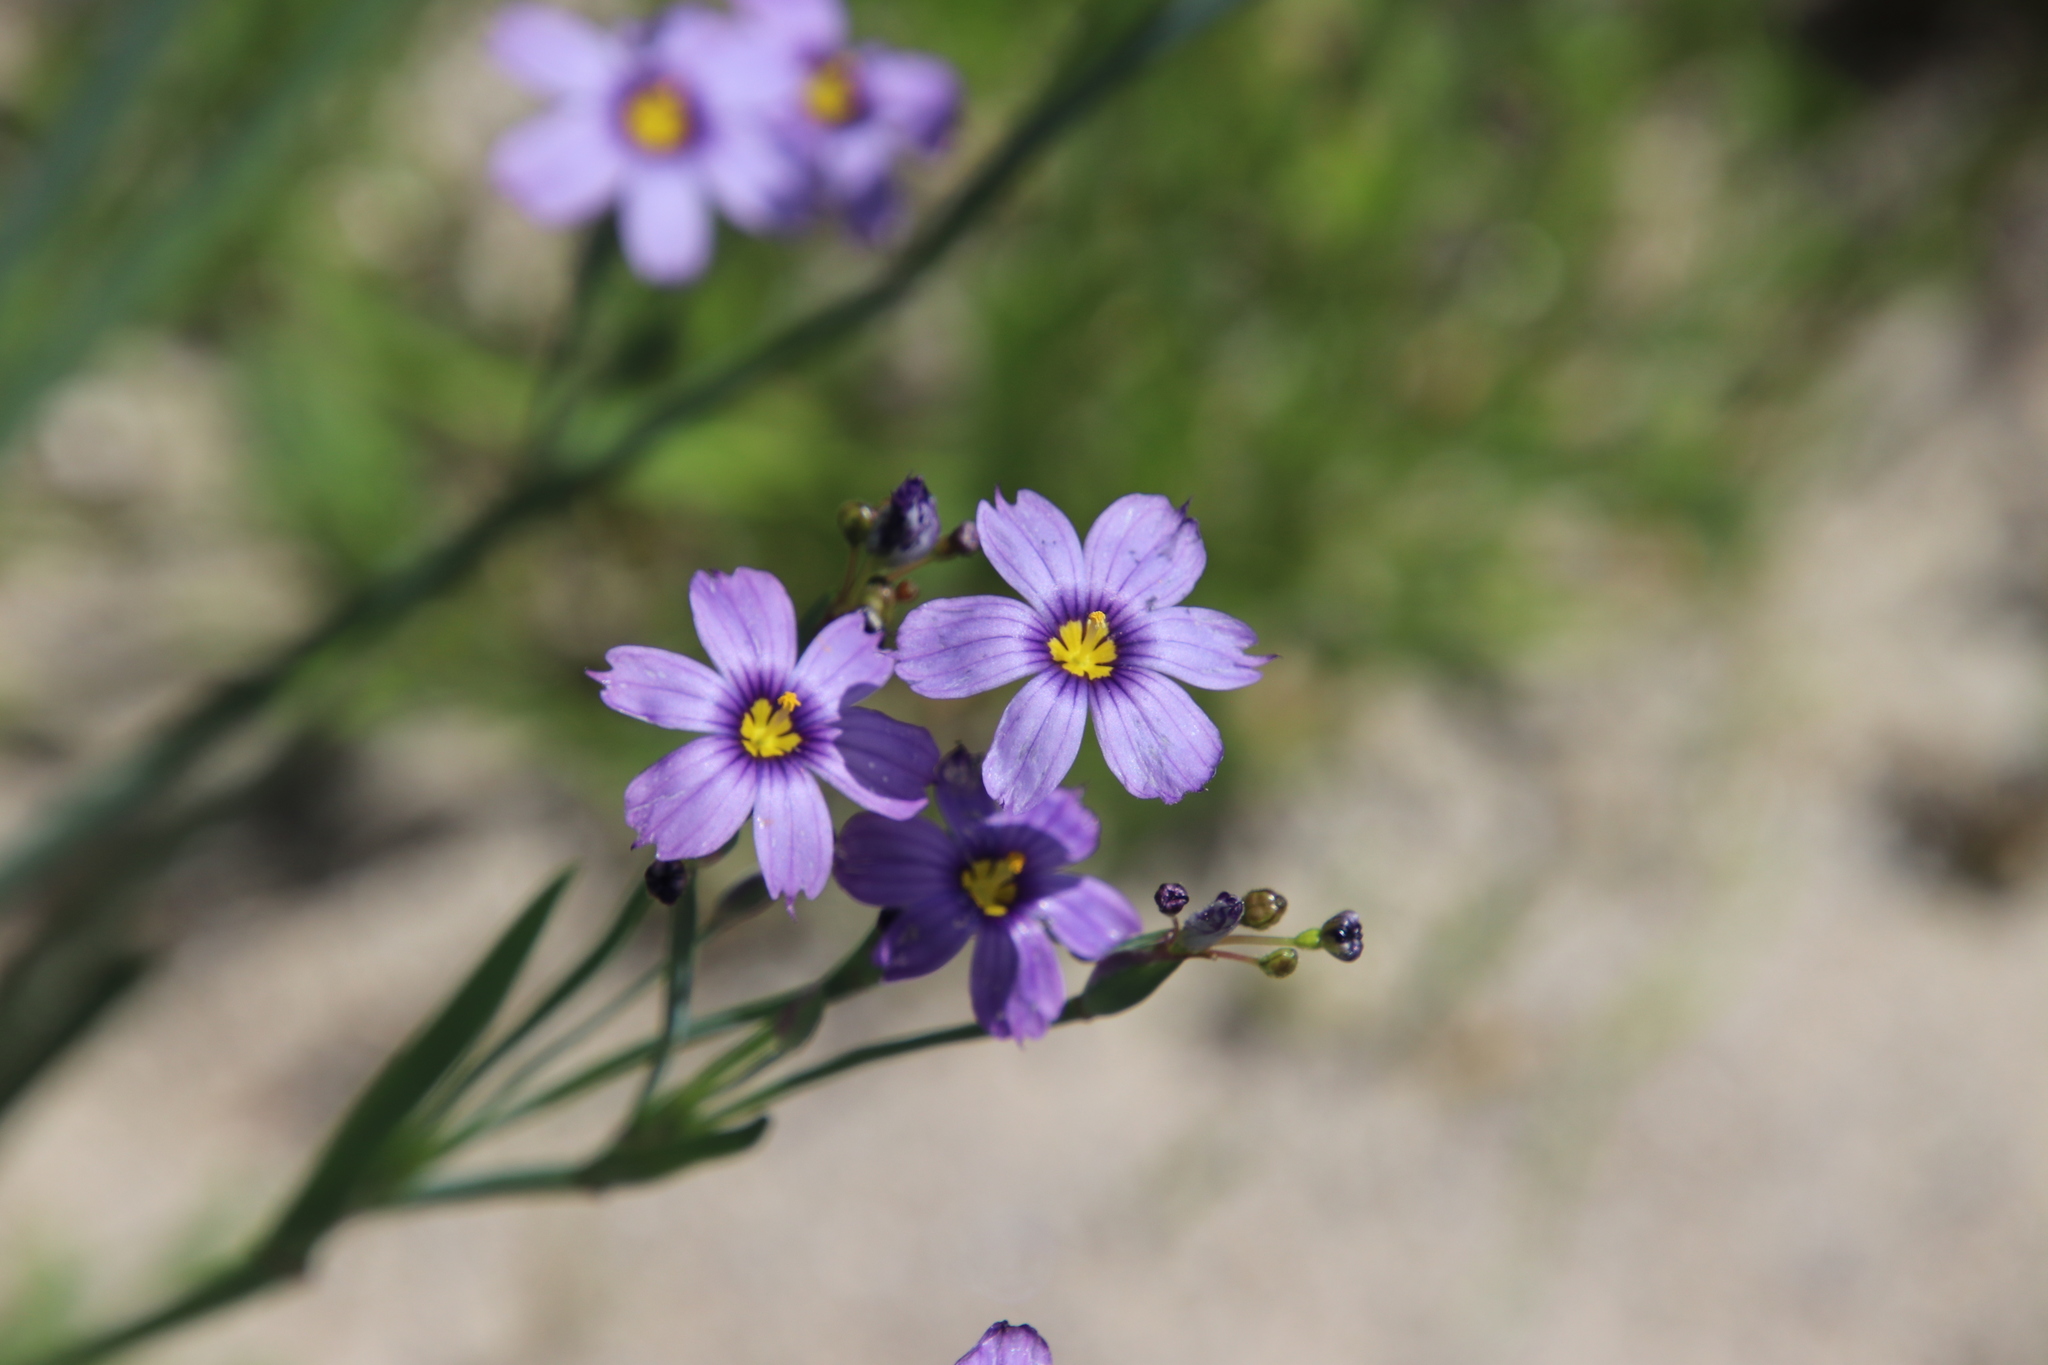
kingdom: Plantae
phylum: Tracheophyta
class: Liliopsida
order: Asparagales
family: Iridaceae
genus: Sisyrinchium
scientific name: Sisyrinchium bellum
